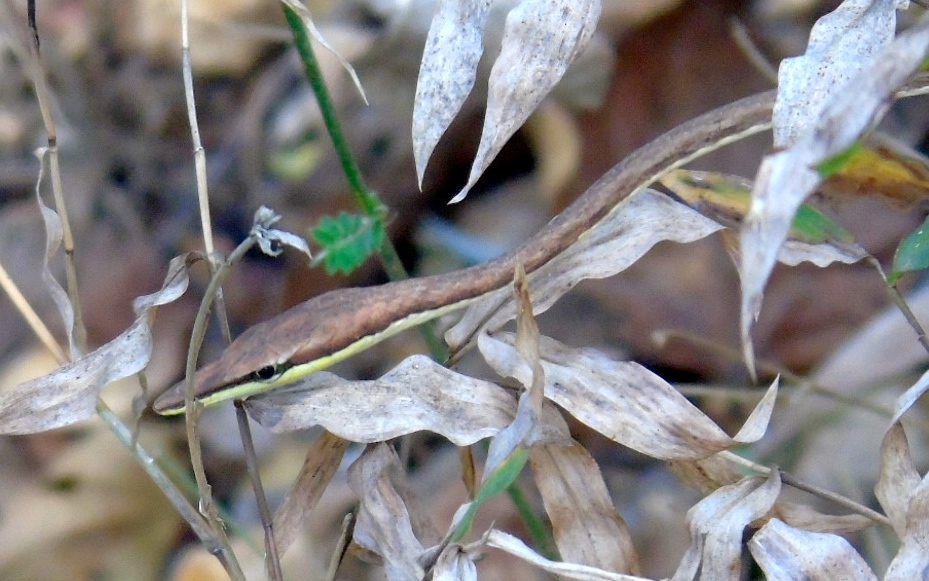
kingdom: Animalia
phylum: Chordata
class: Squamata
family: Colubridae
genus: Oxybelis
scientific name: Oxybelis microphthalmus
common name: Thrornscrub vine snake
